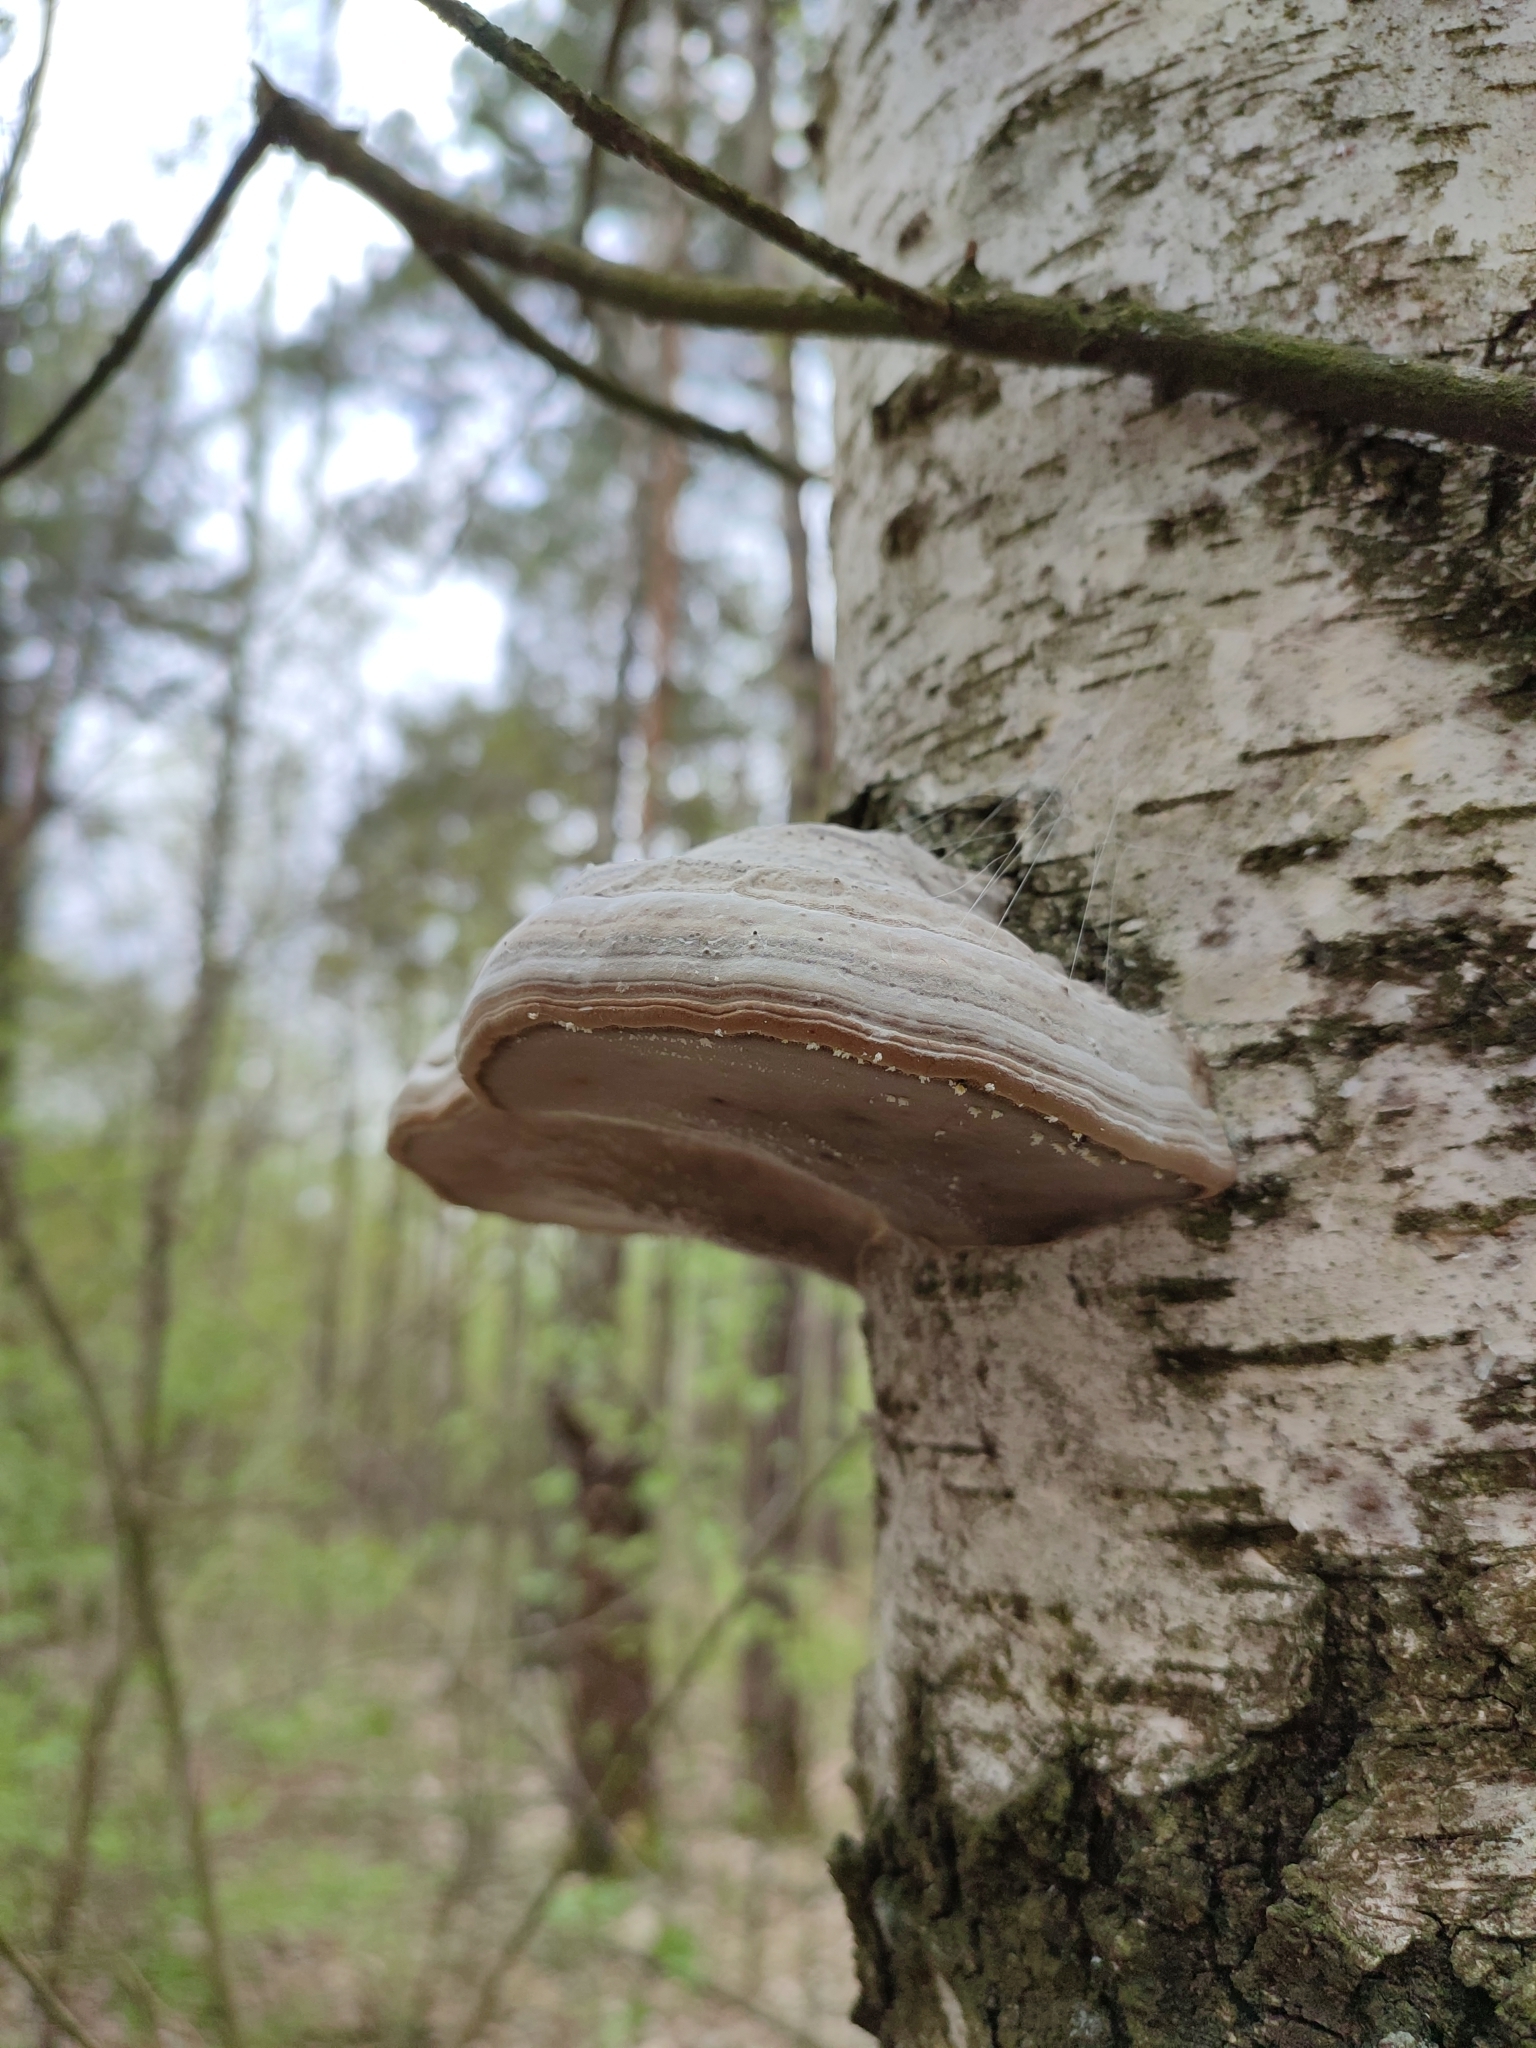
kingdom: Fungi
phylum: Basidiomycota
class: Agaricomycetes
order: Polyporales
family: Polyporaceae
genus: Fomes
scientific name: Fomes fomentarius
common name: Hoof fungus
